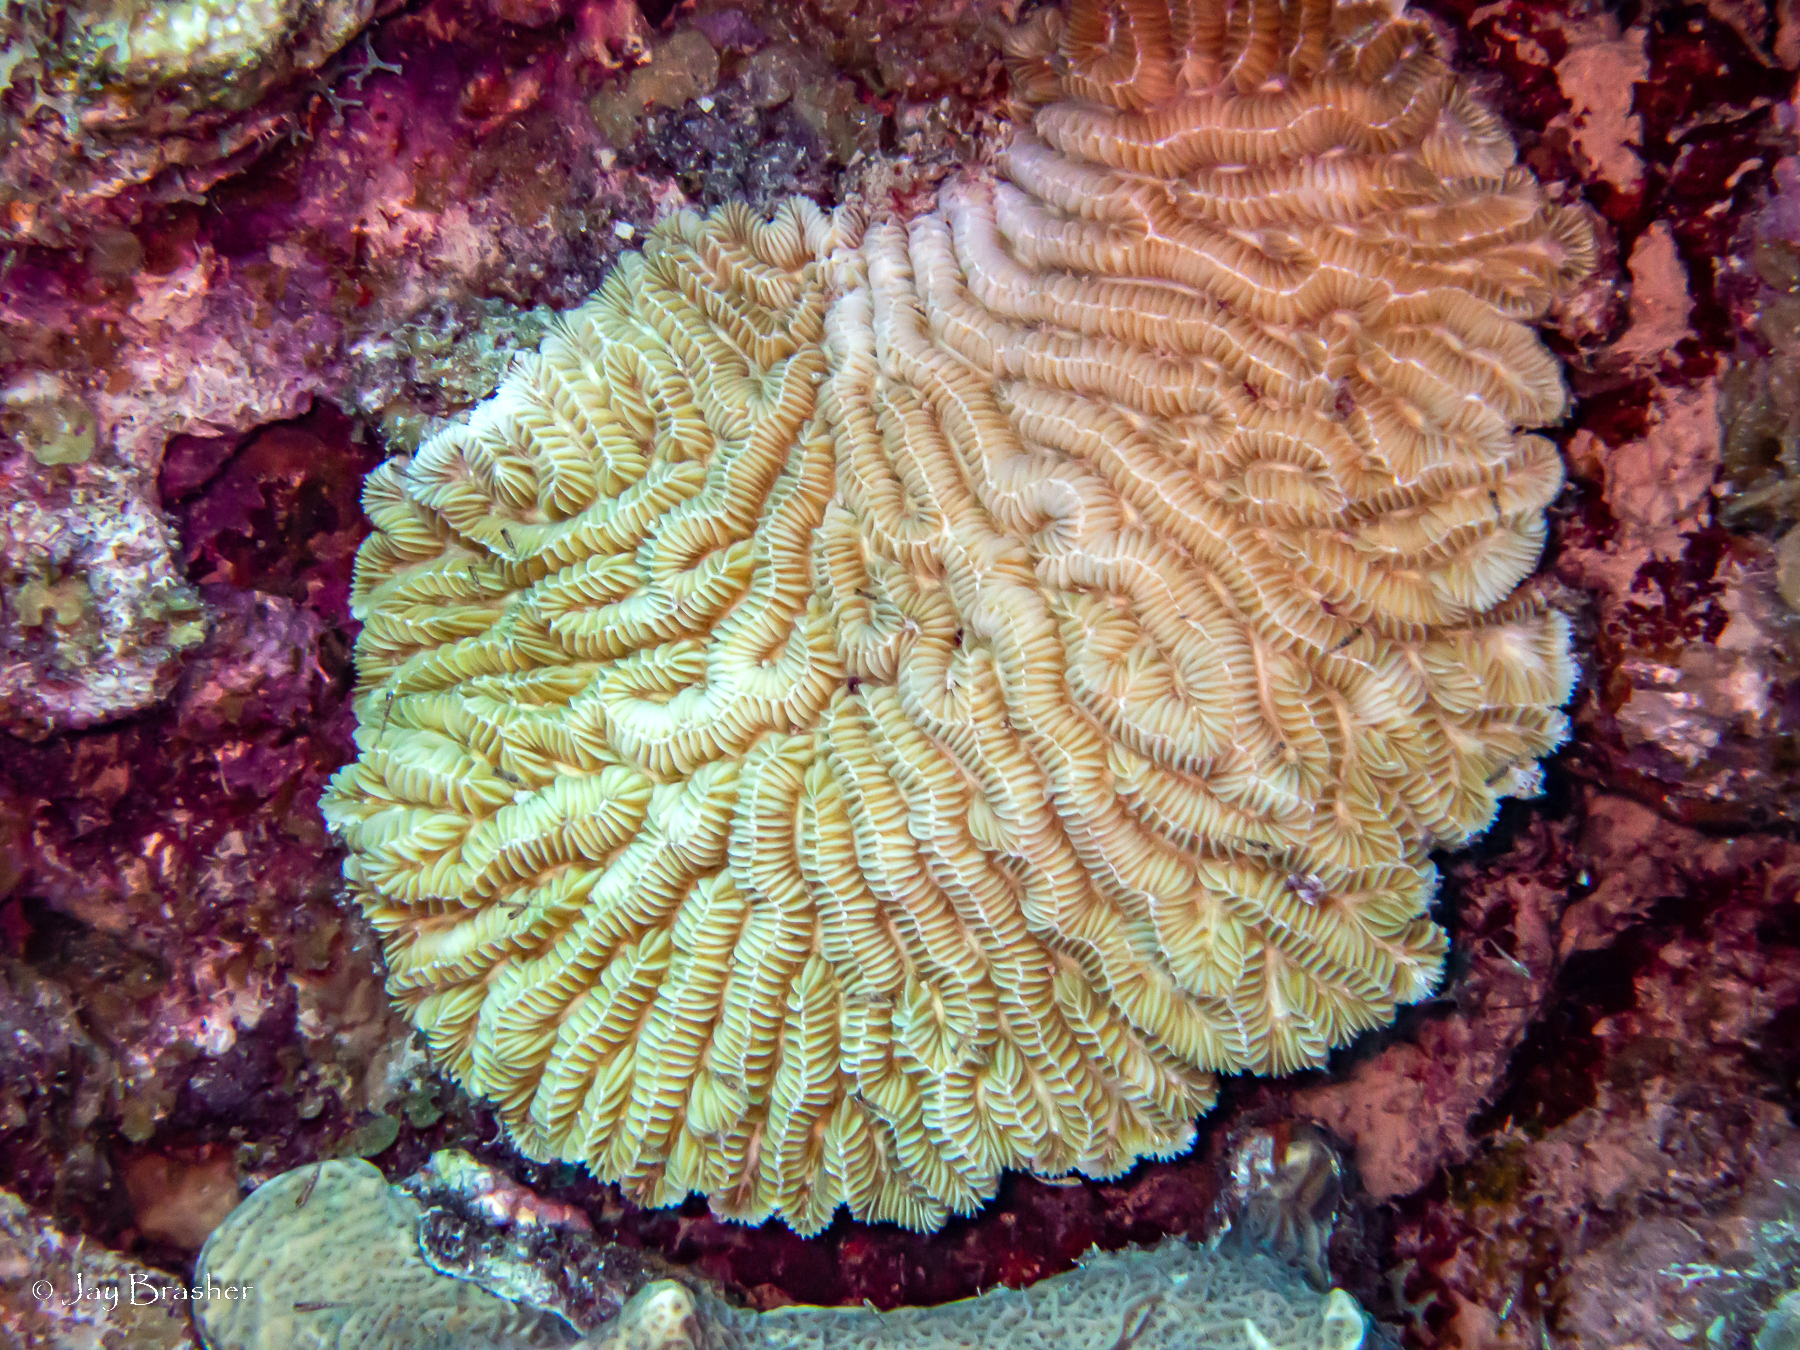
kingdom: Animalia
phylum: Cnidaria
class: Anthozoa
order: Scleractinia
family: Meandrinidae
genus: Meandrina
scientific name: Meandrina meandrites
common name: Maze coral
